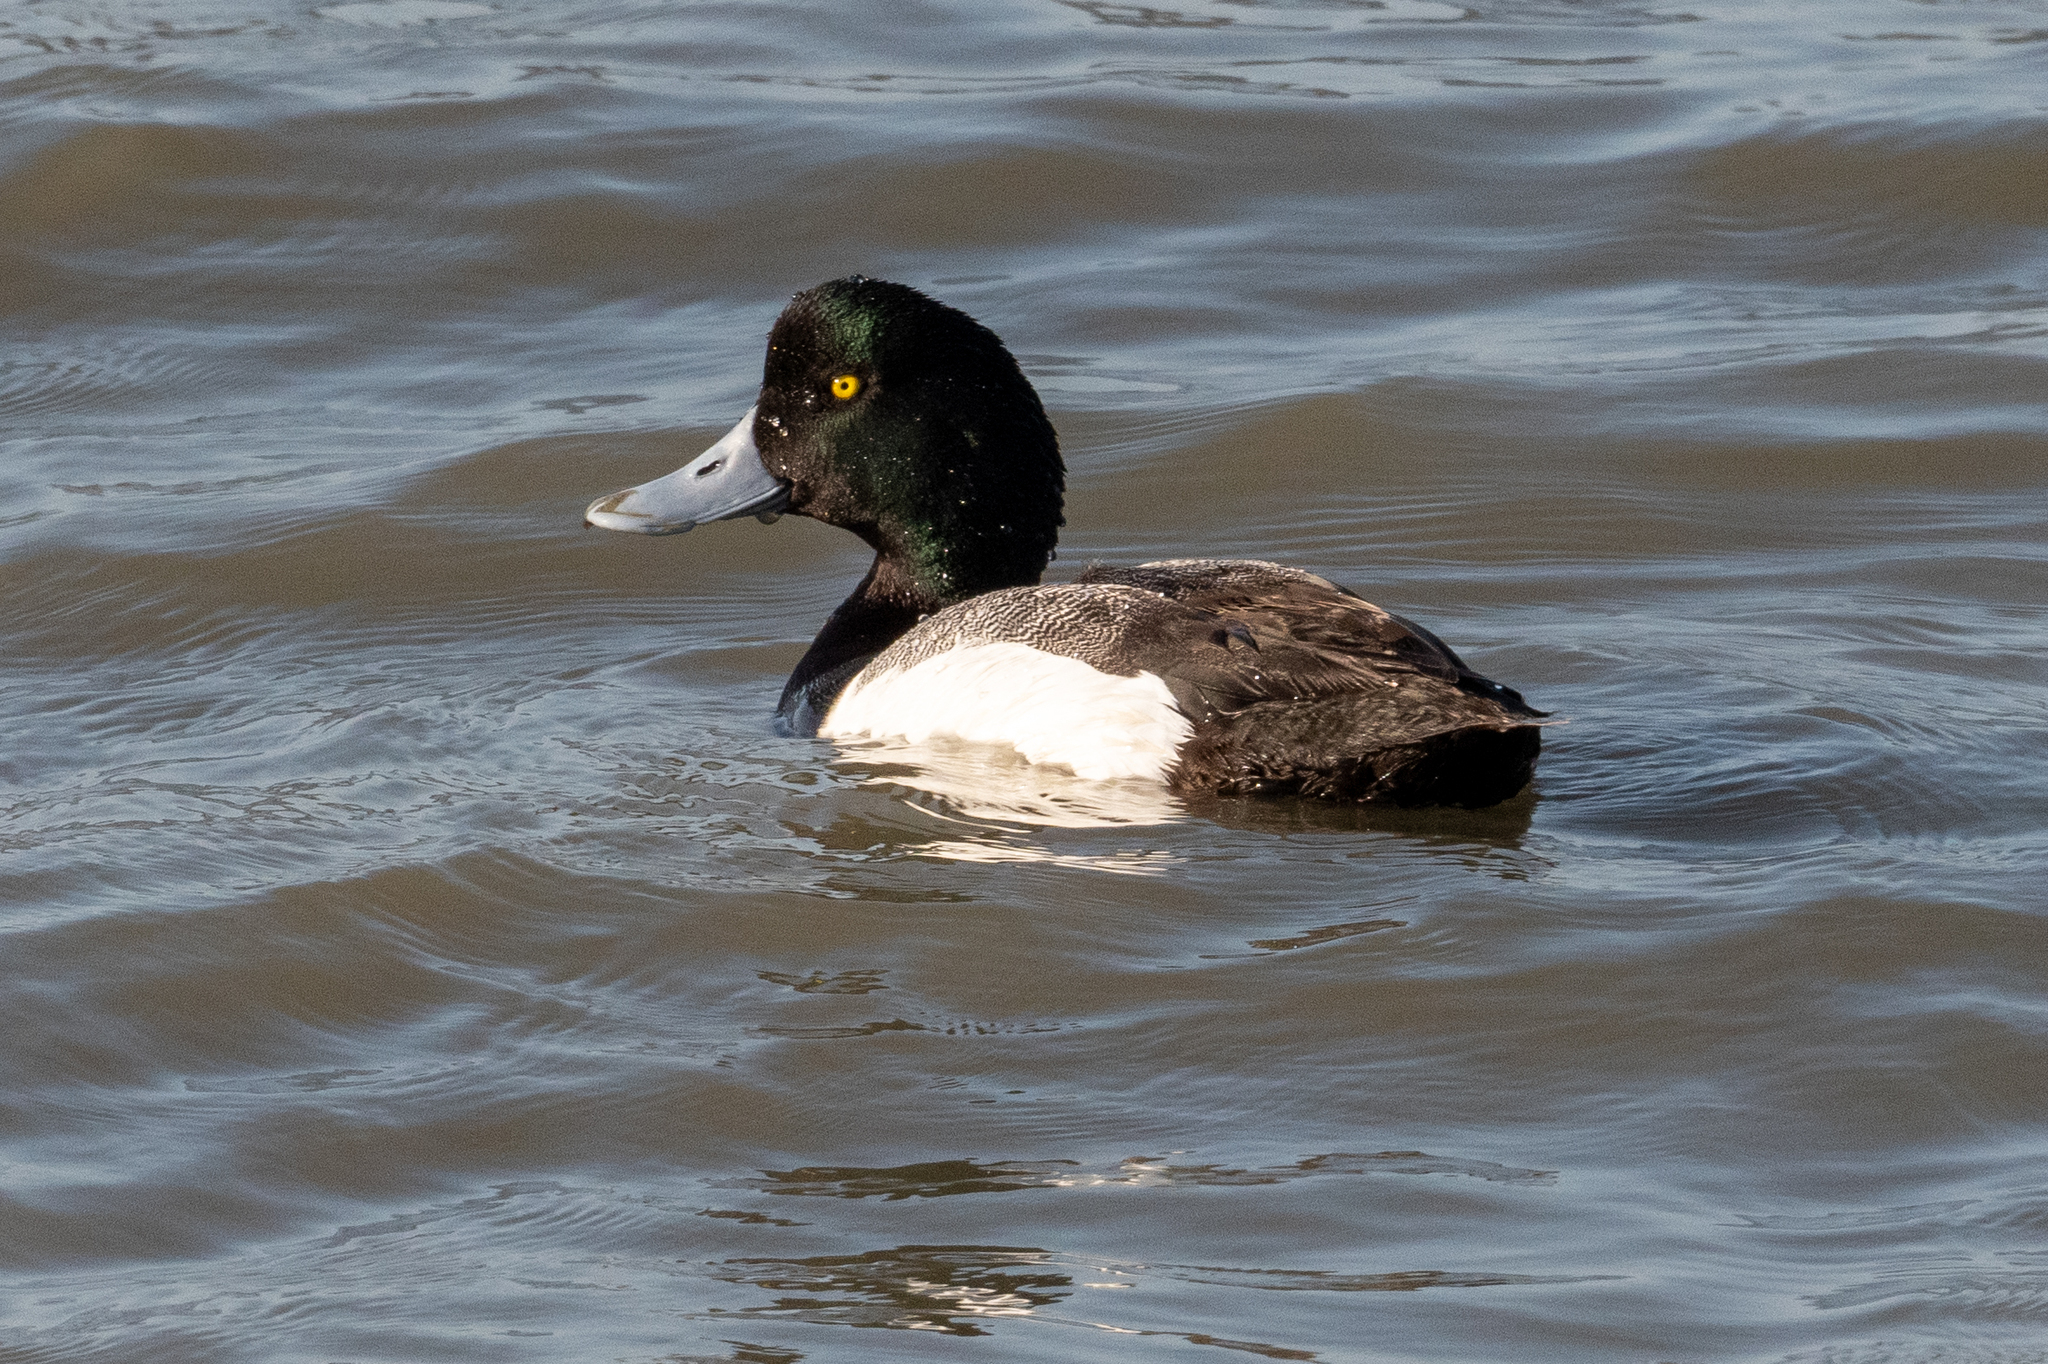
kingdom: Animalia
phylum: Chordata
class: Aves
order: Anseriformes
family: Anatidae
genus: Aythya
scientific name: Aythya marila
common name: Greater scaup
